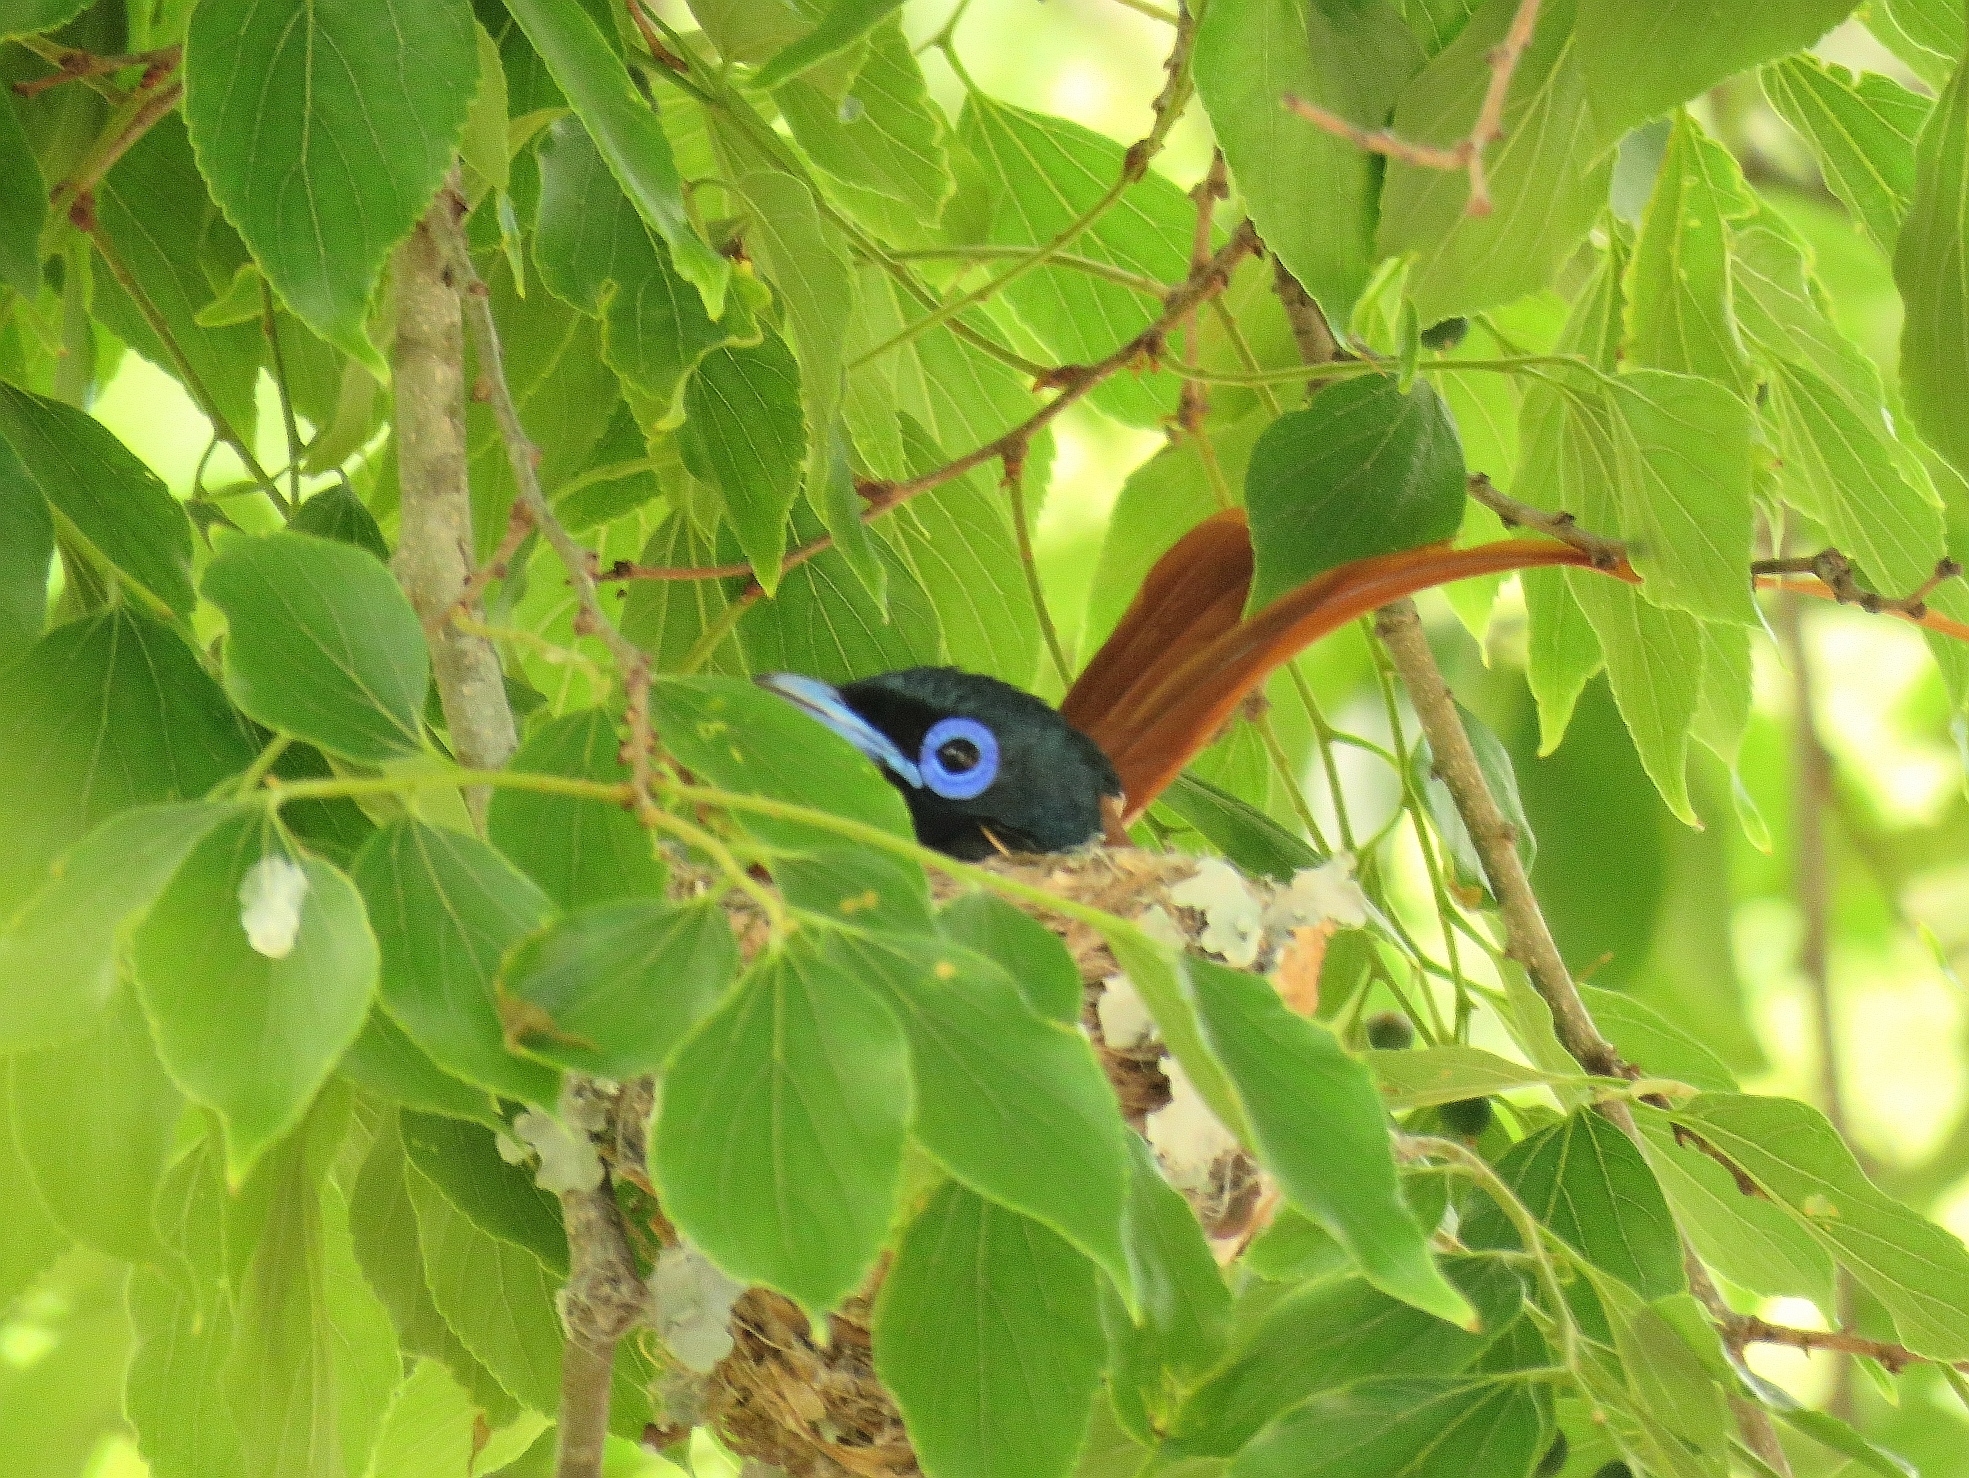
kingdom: Animalia
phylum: Chordata
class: Aves
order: Passeriformes
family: Monarchidae
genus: Terpsiphone
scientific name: Terpsiphone viridis
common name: African paradise flycatcher
